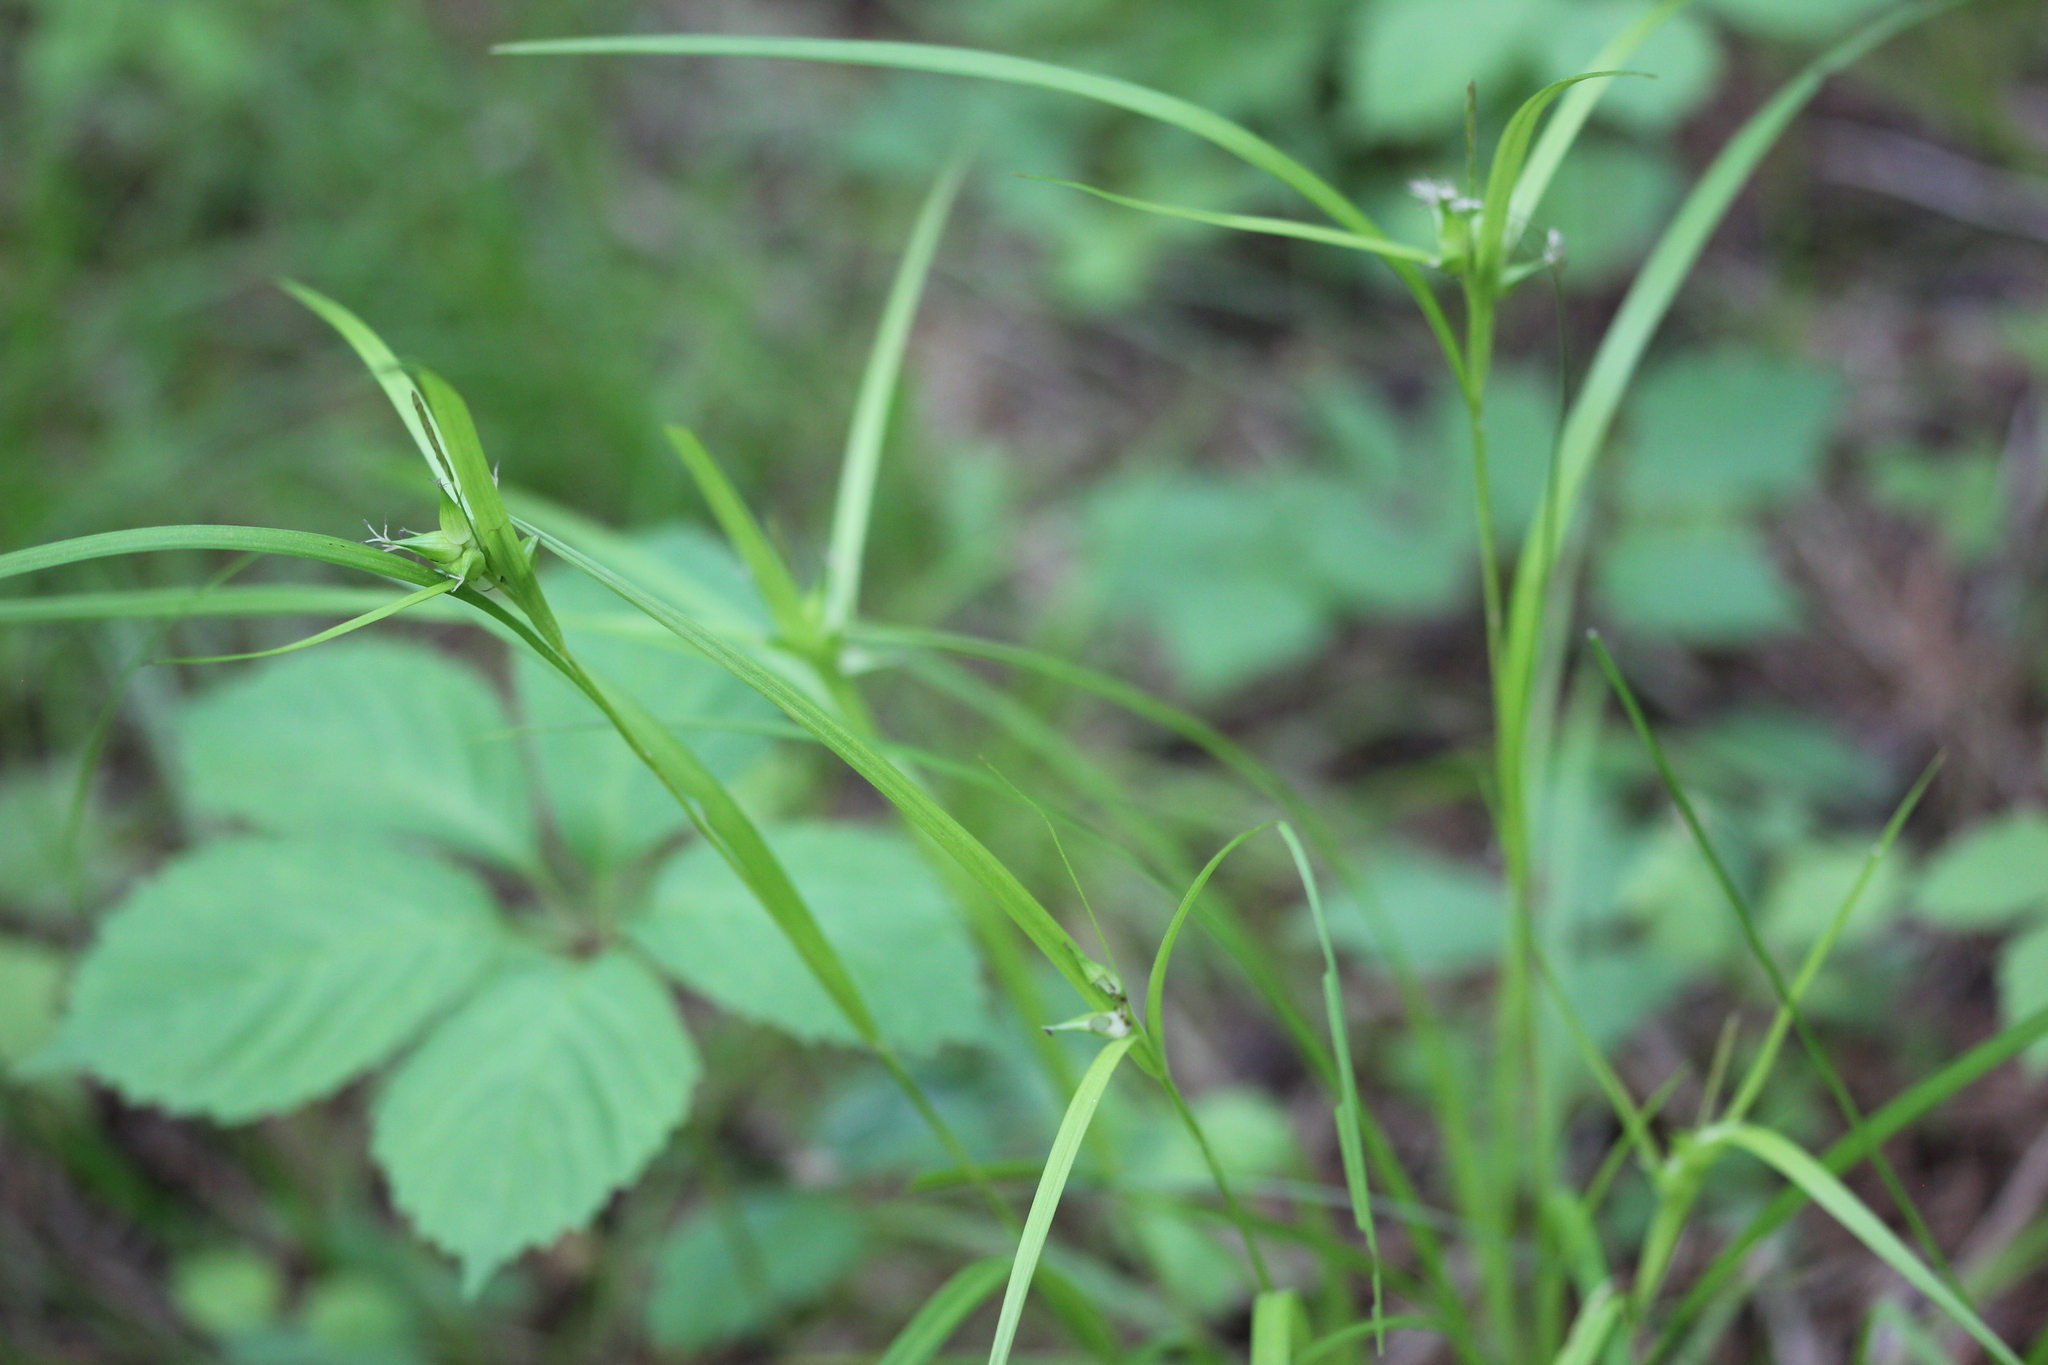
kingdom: Plantae
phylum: Tracheophyta
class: Liliopsida
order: Poales
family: Cyperaceae
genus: Carex
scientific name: Carex intumescens
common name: Greater bladder sedge
